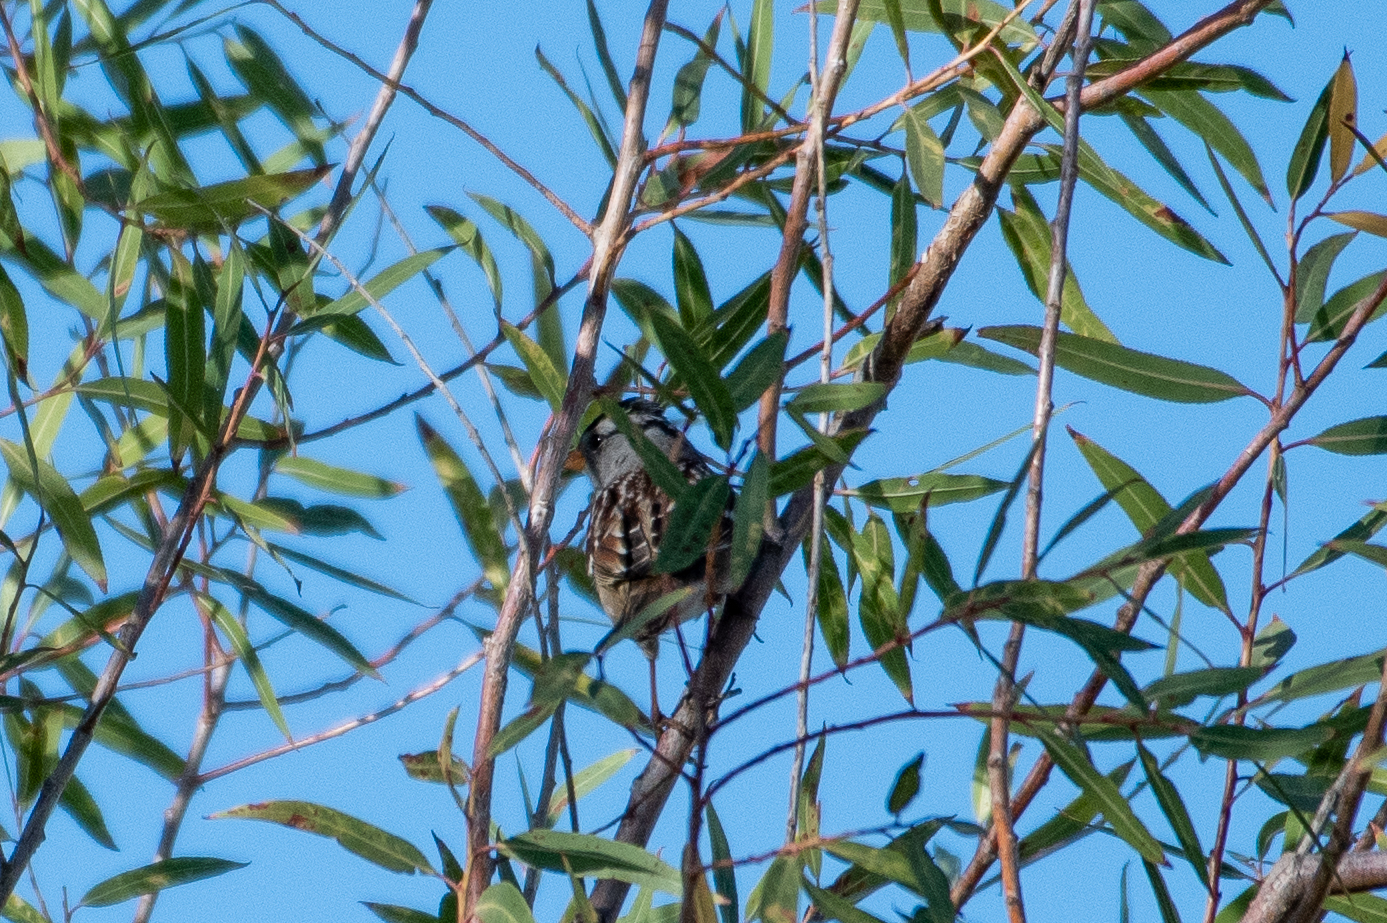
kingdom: Animalia
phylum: Chordata
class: Aves
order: Passeriformes
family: Passerellidae
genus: Zonotrichia
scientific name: Zonotrichia leucophrys
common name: White-crowned sparrow
